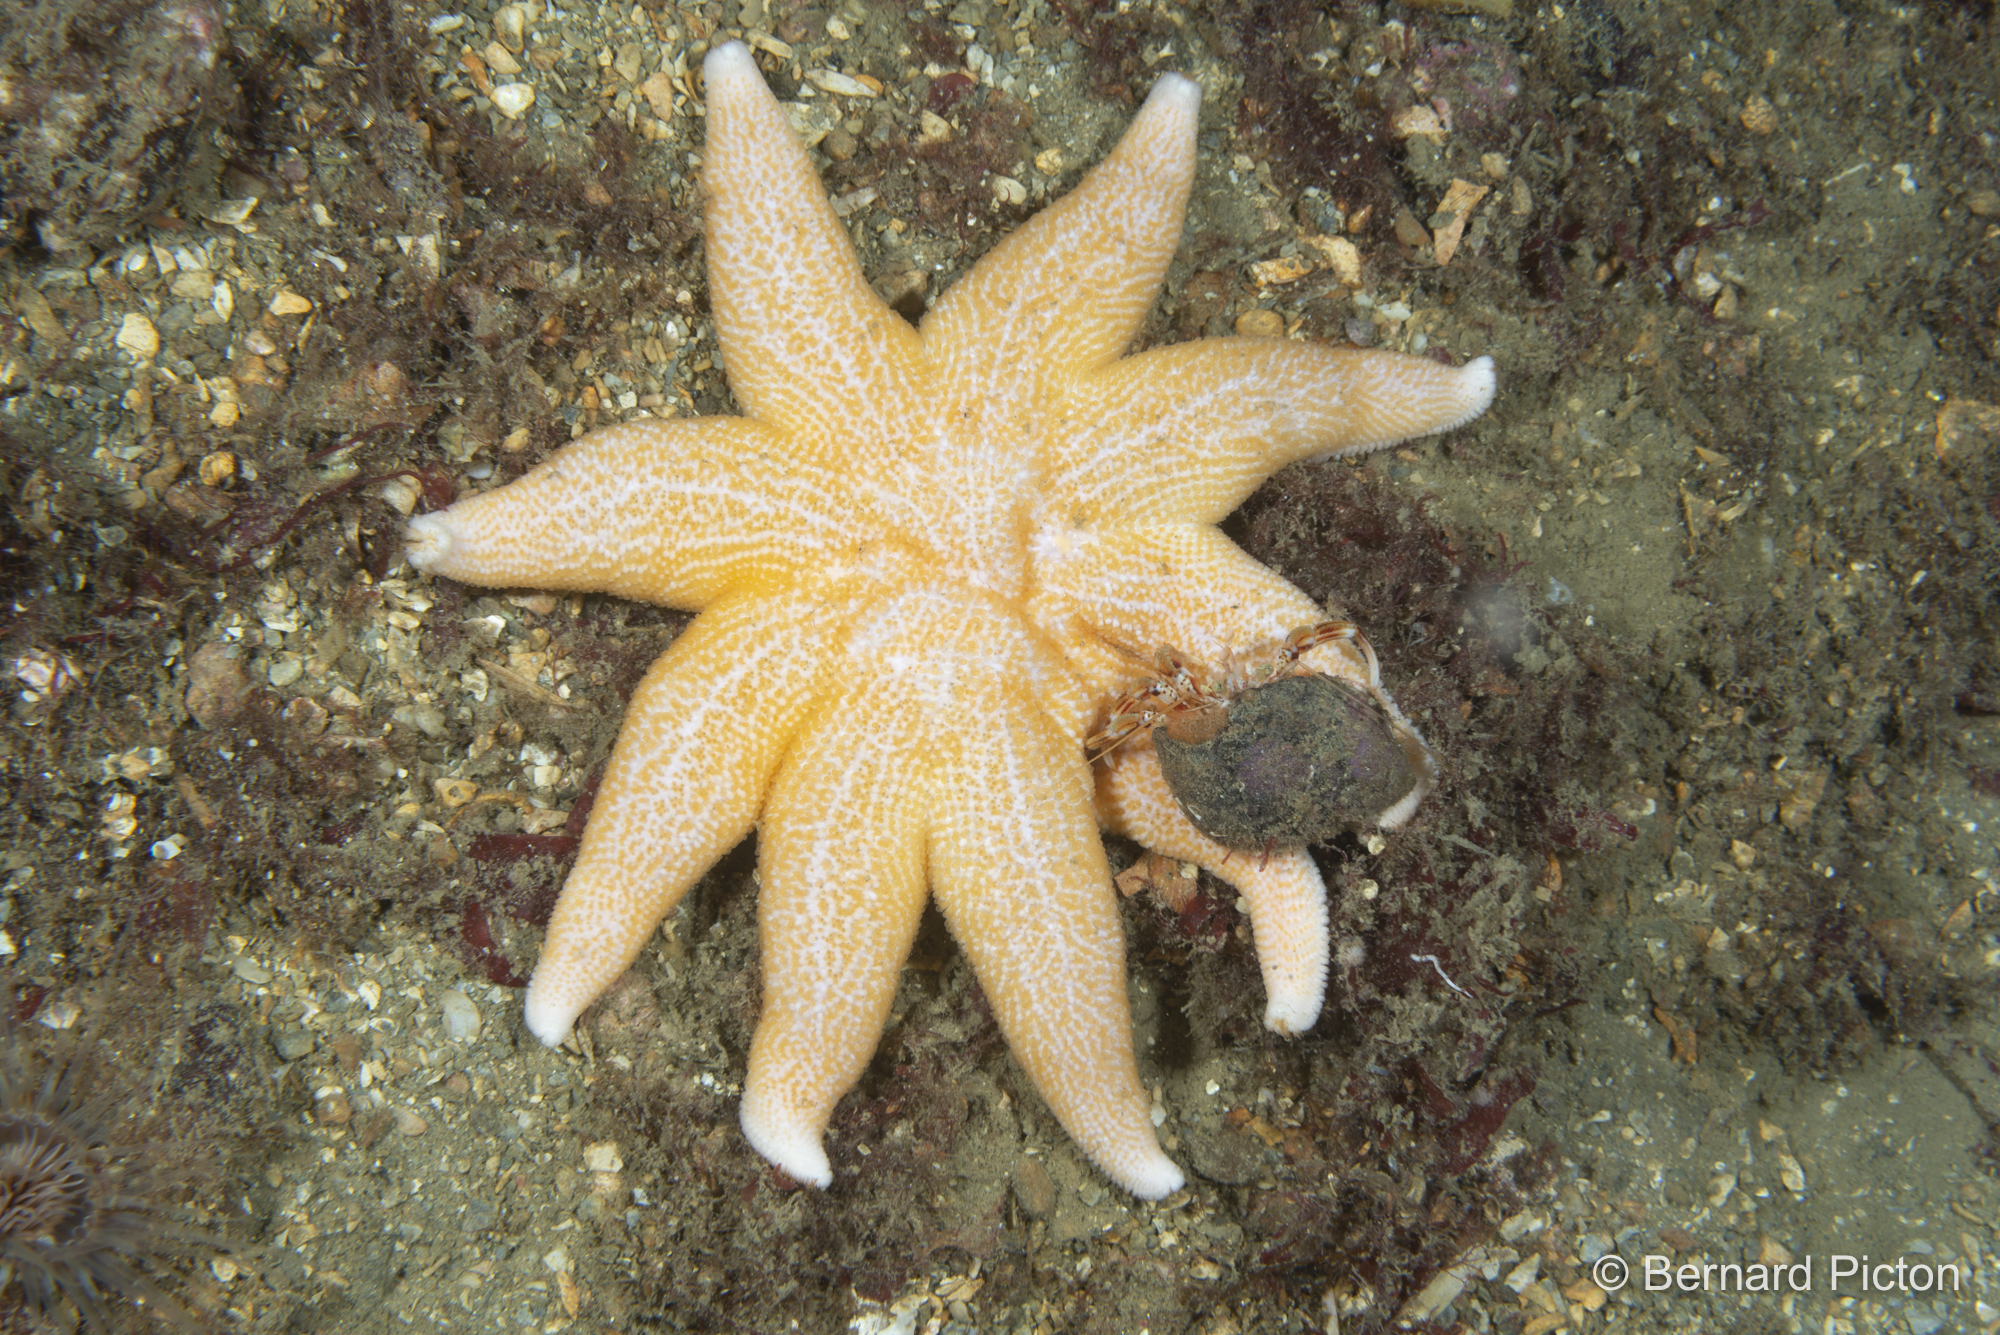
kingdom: Animalia
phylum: Echinodermata
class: Asteroidea
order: Valvatida
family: Solasteridae
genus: Solaster
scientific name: Solaster endeca
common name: Purple sun star
